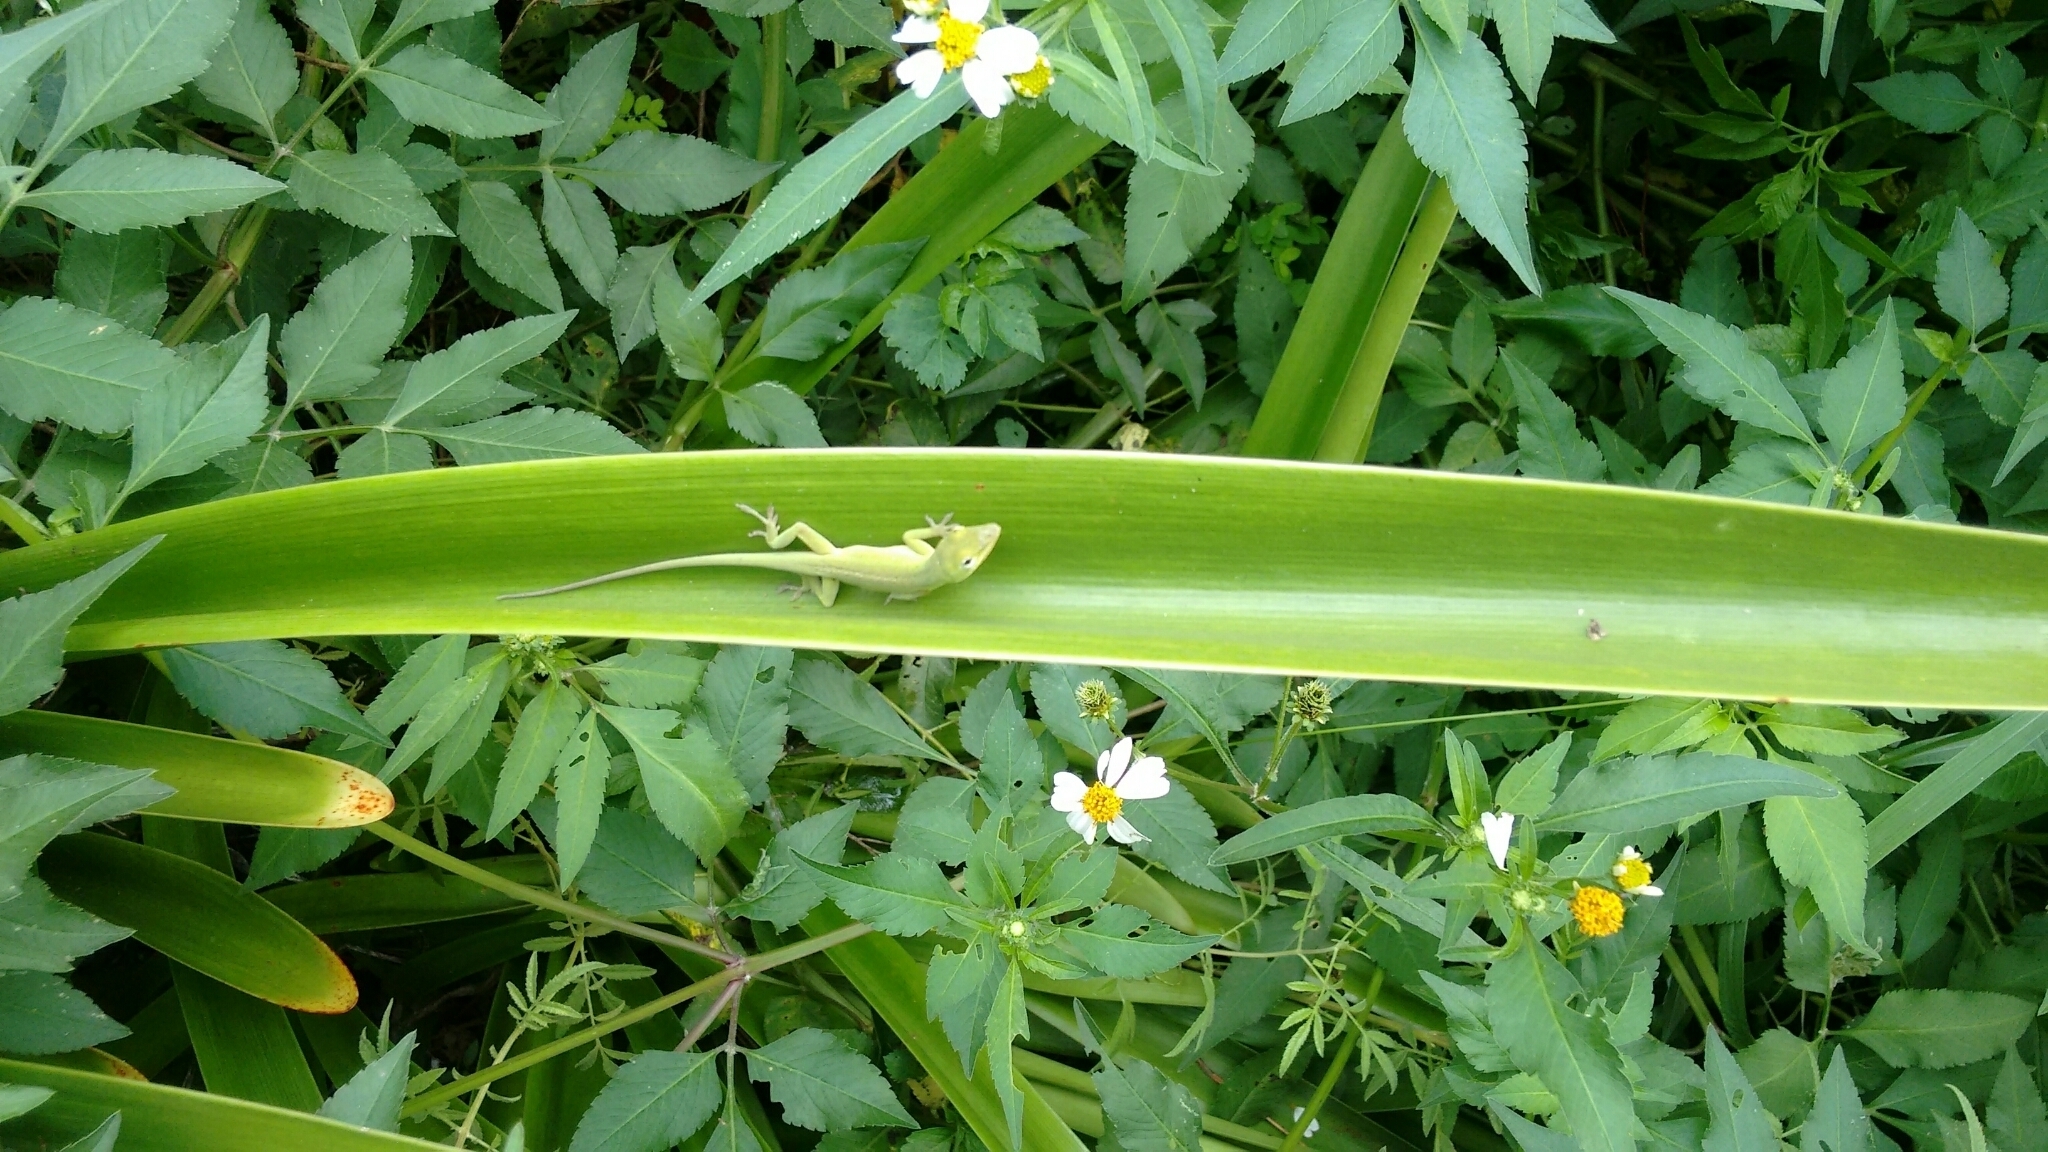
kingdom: Animalia
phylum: Chordata
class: Squamata
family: Dactyloidae
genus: Anolis
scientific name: Anolis carolinensis
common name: Green anole
